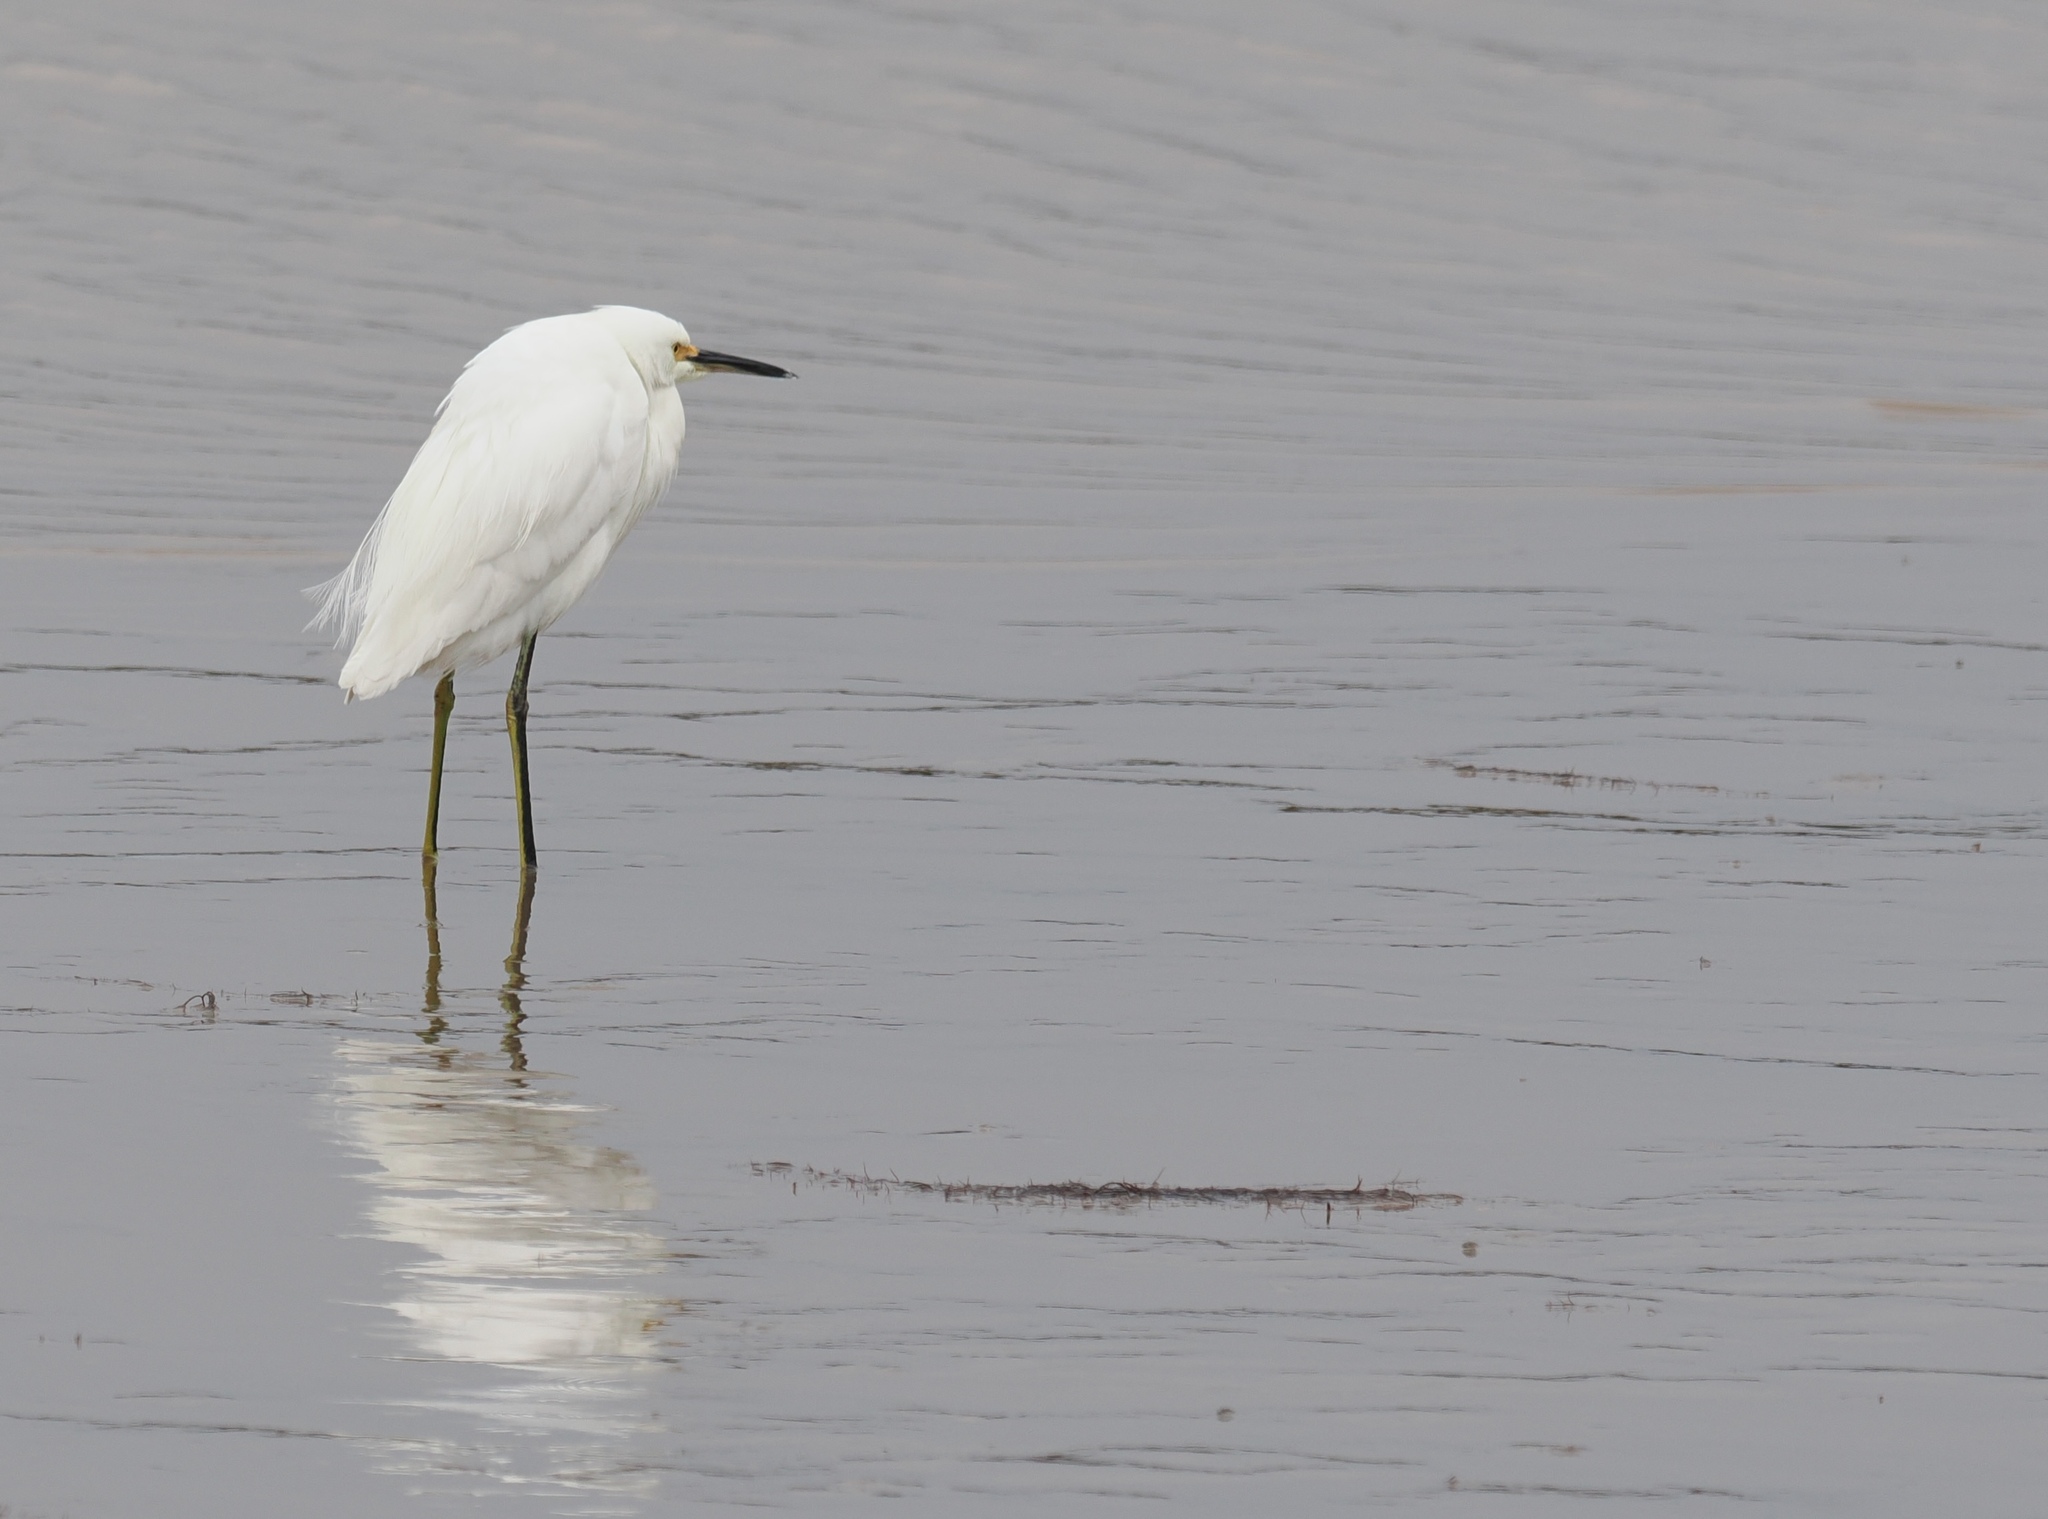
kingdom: Animalia
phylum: Chordata
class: Aves
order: Pelecaniformes
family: Ardeidae
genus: Egretta
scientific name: Egretta thula
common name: Snowy egret
